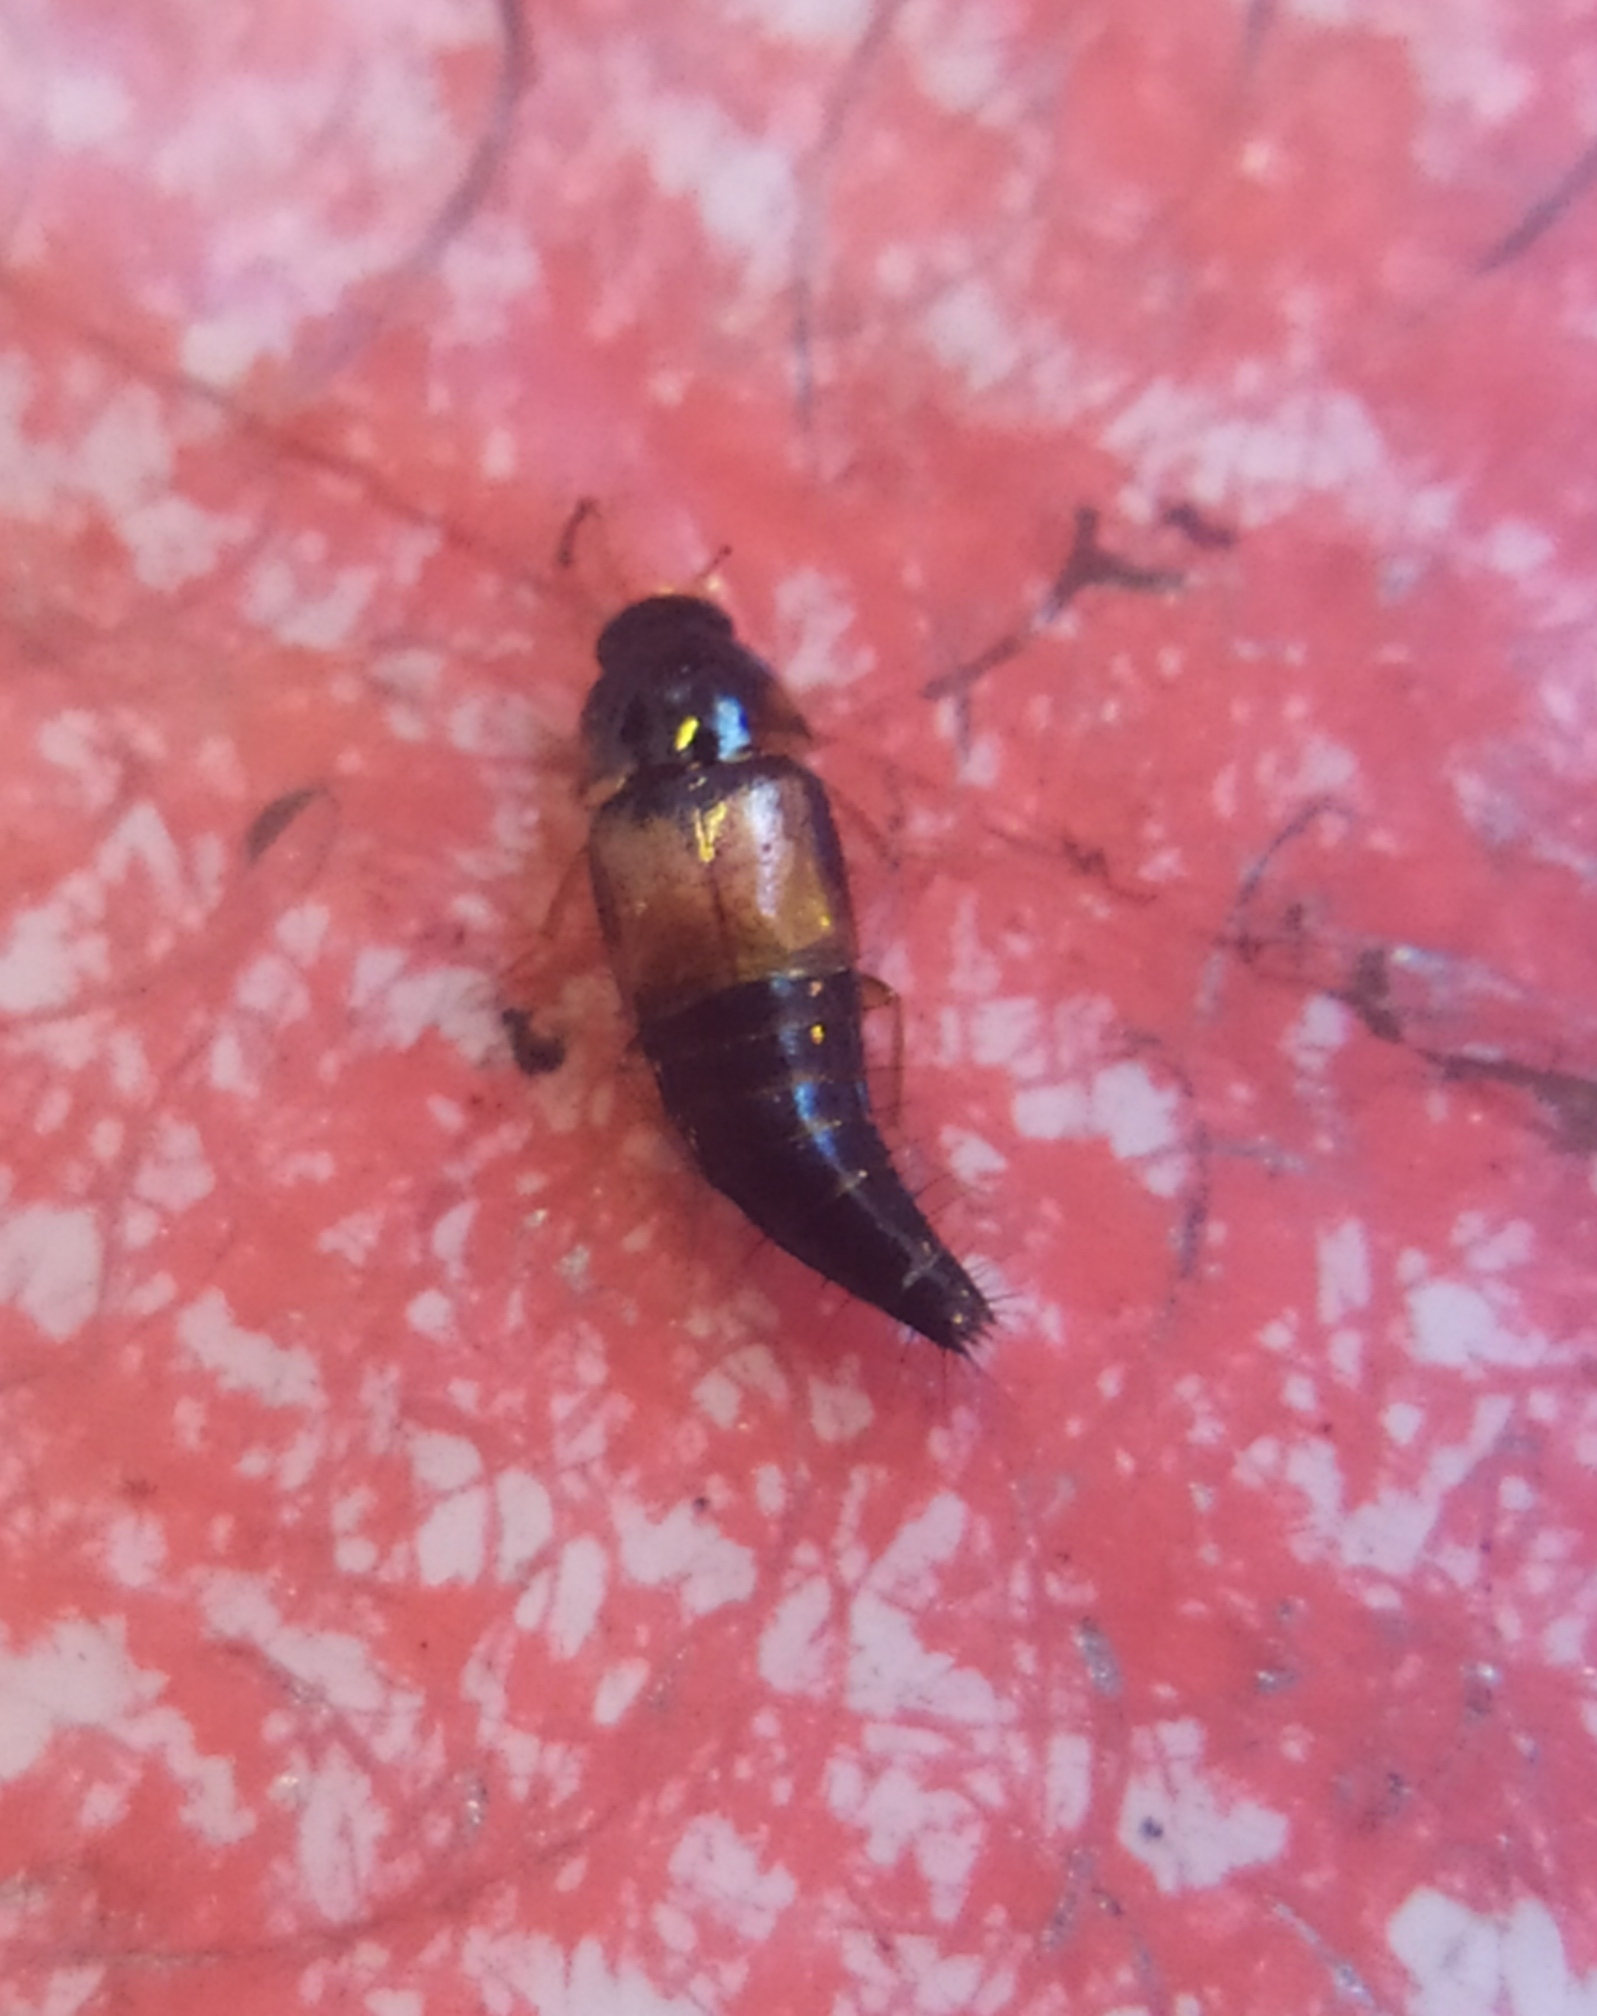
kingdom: Animalia
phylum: Arthropoda
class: Insecta
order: Coleoptera
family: Staphylinidae
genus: Tachyporus
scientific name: Tachyporus hypnorum
